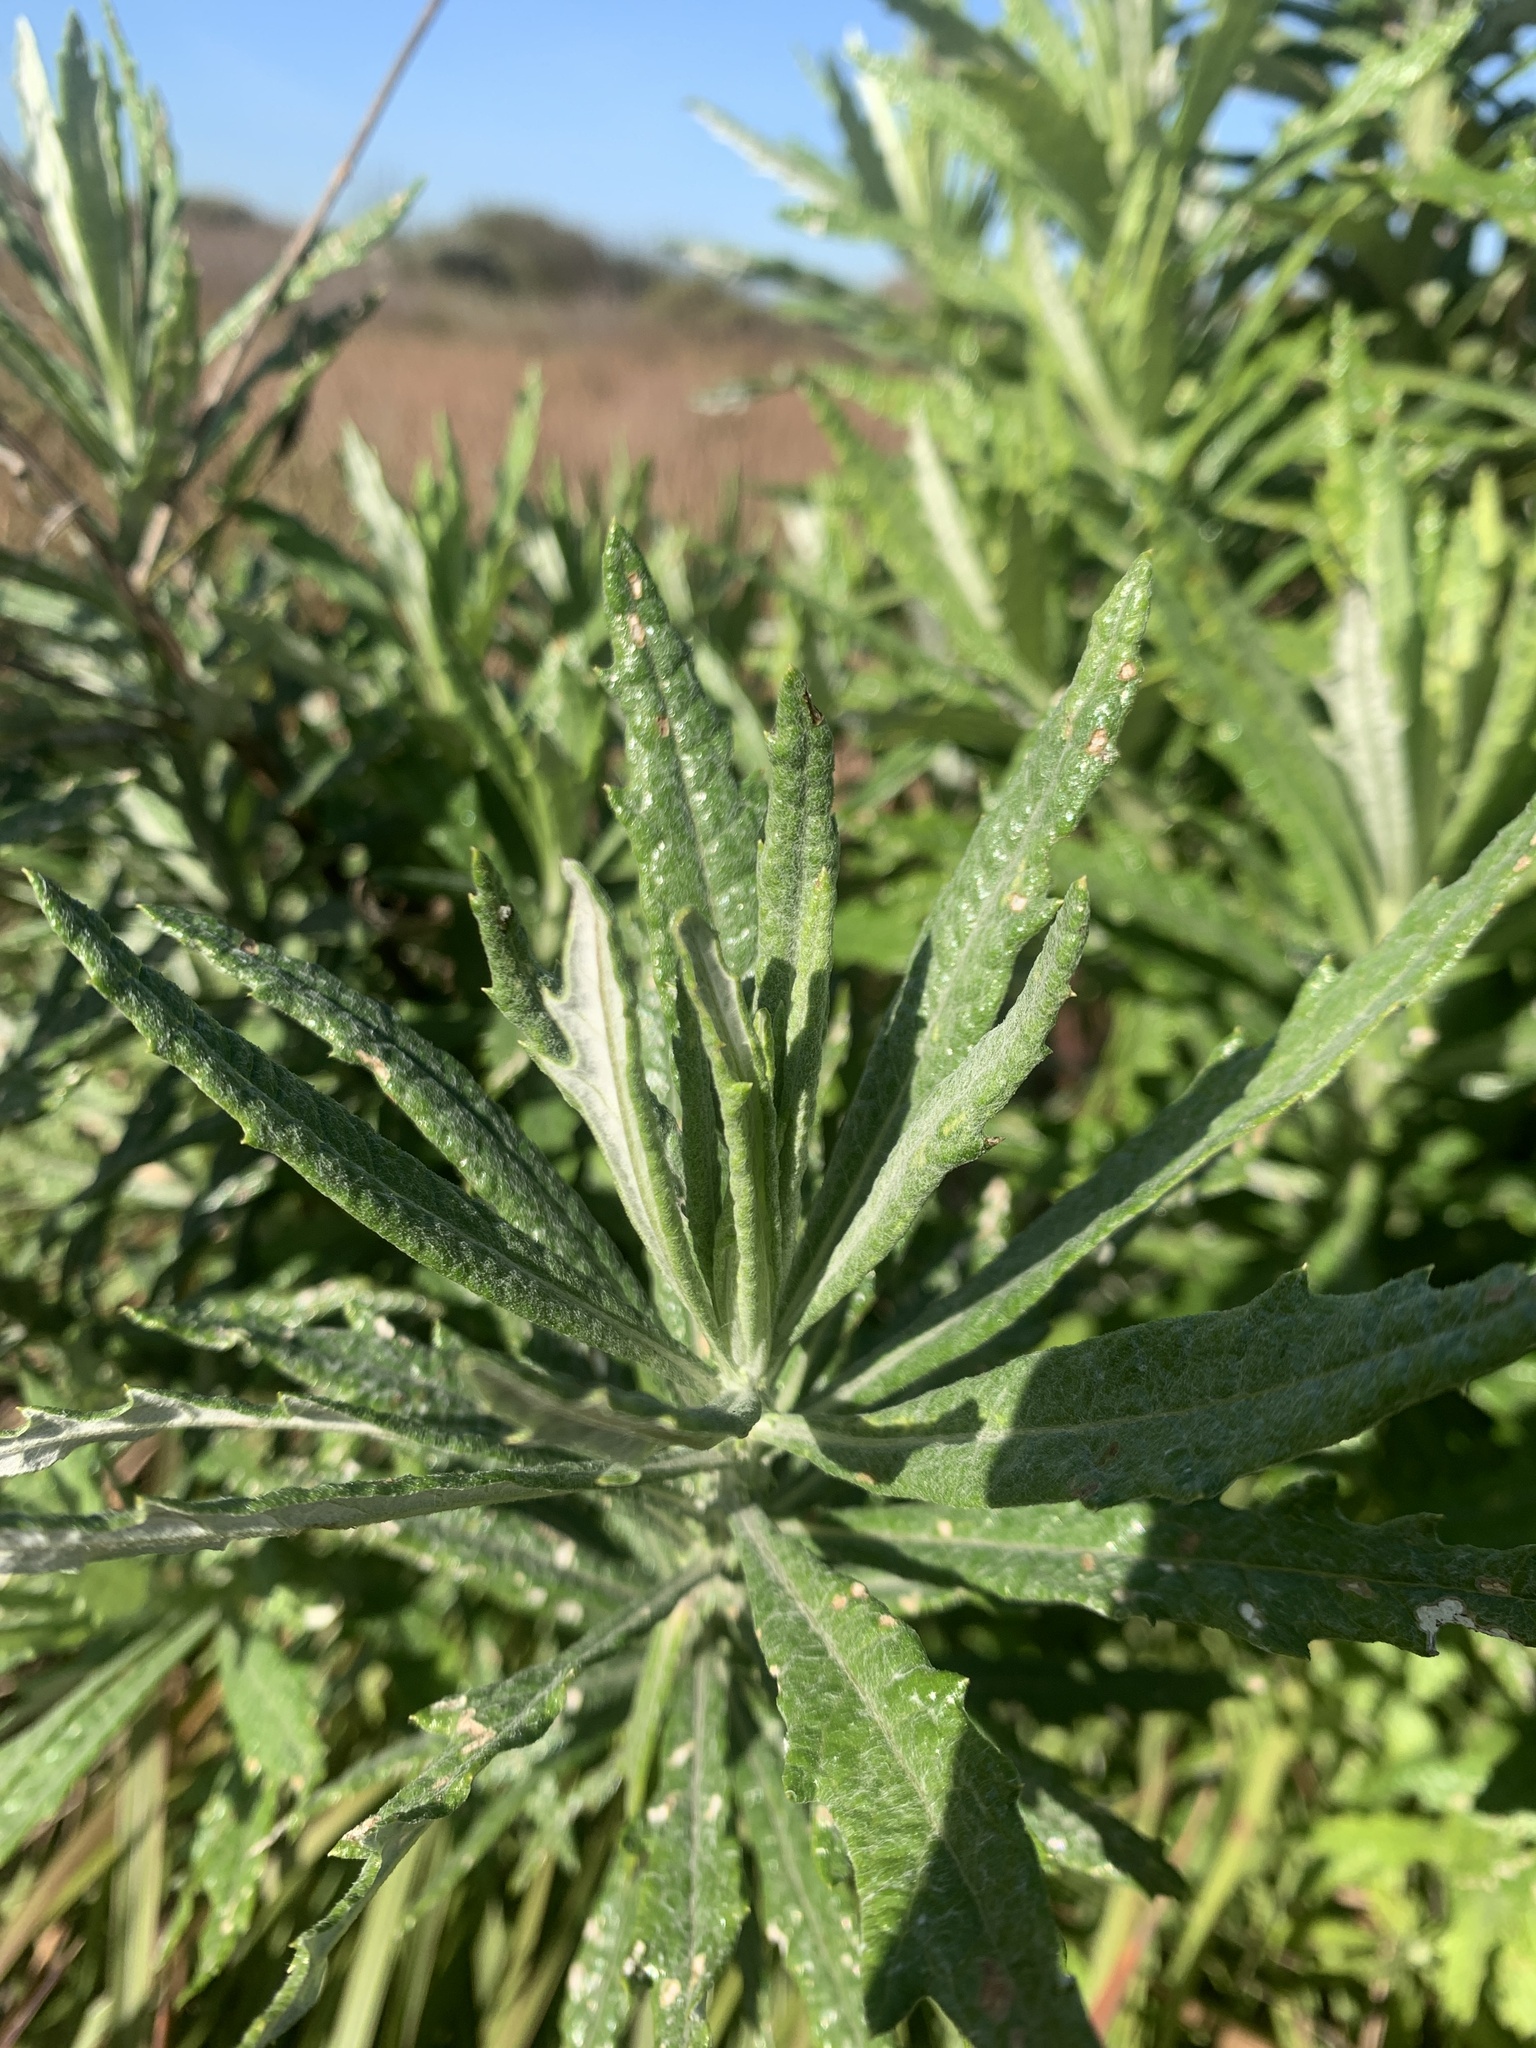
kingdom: Plantae
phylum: Tracheophyta
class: Magnoliopsida
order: Asterales
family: Asteraceae
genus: Senecio
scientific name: Senecio pterophorus
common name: Shoddy ragwort
